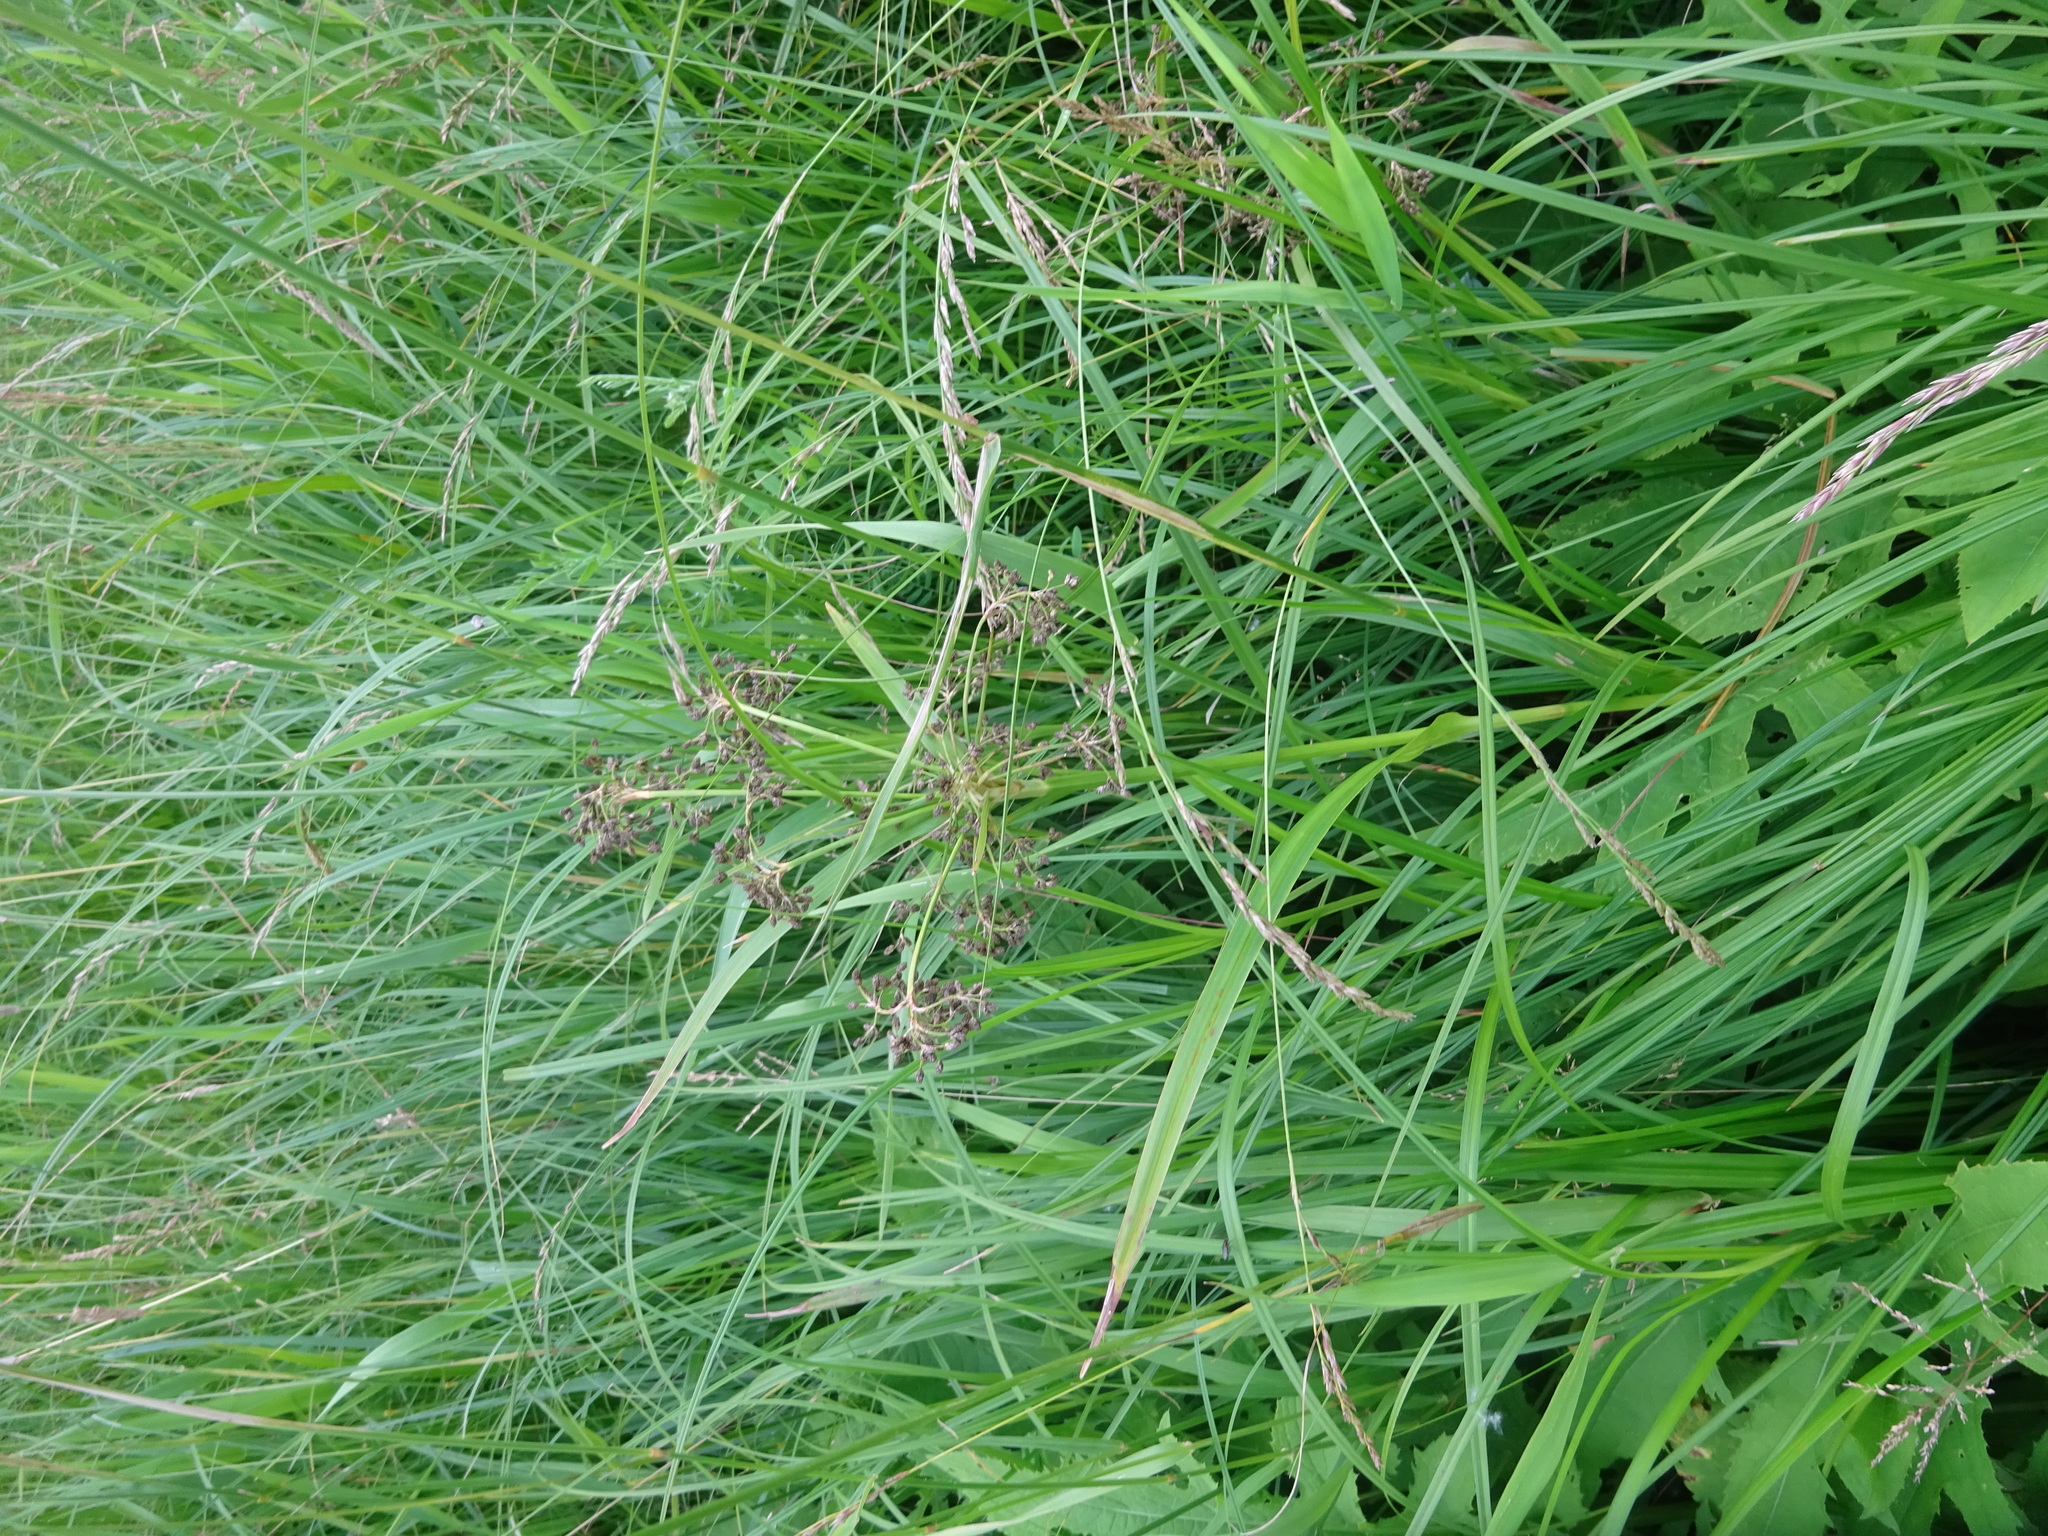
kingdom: Plantae
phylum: Tracheophyta
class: Liliopsida
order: Poales
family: Cyperaceae
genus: Scirpus
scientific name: Scirpus sylvaticus
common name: Wood club-rush
